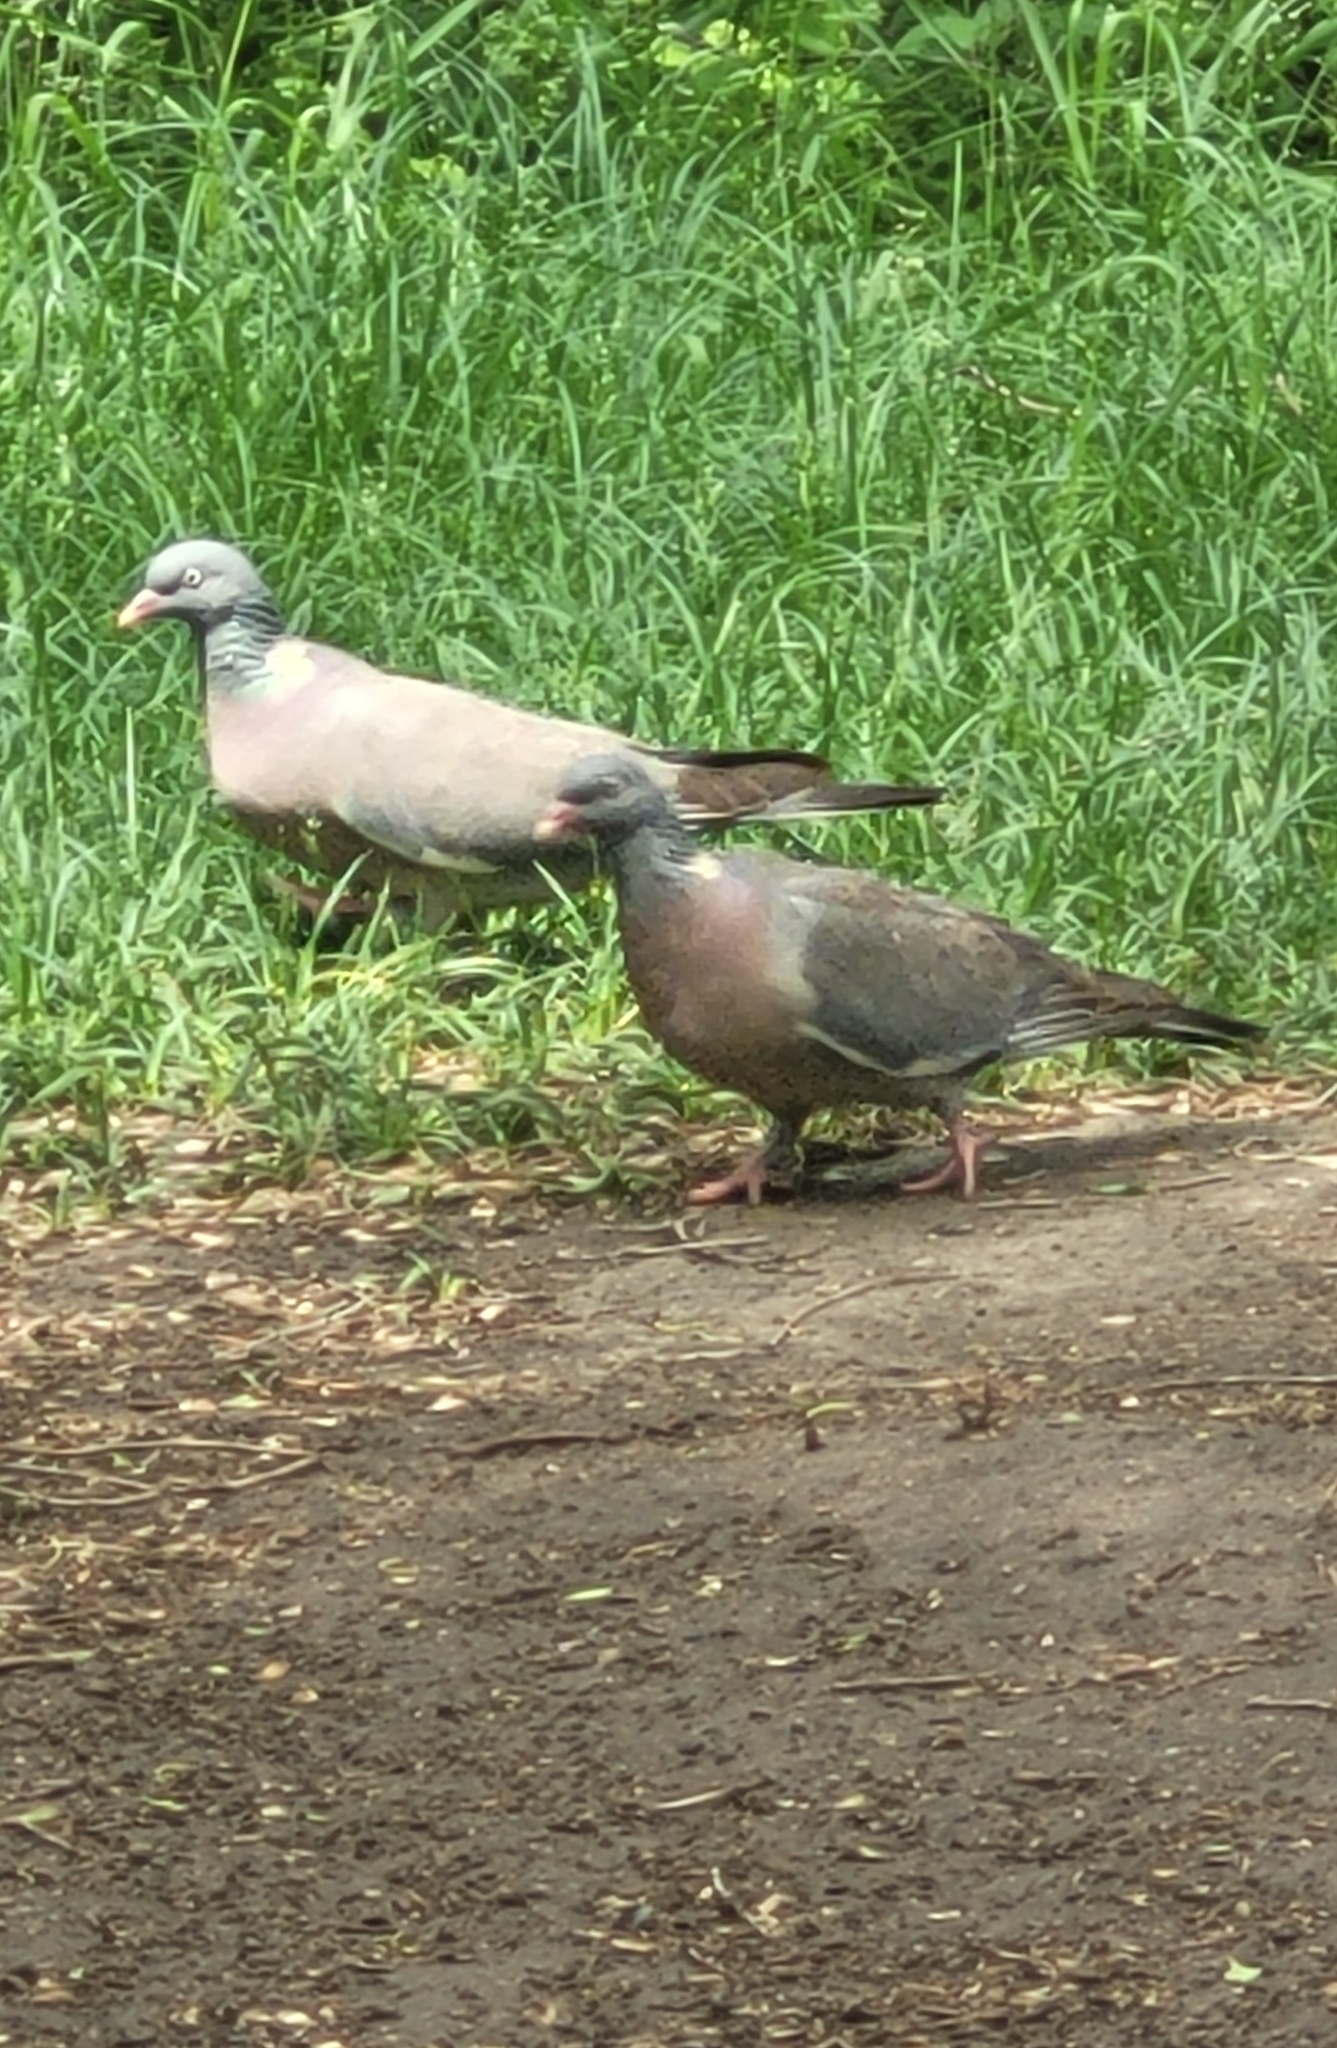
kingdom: Animalia
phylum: Chordata
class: Aves
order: Columbiformes
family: Columbidae
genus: Columba
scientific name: Columba palumbus
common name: Common wood pigeon
